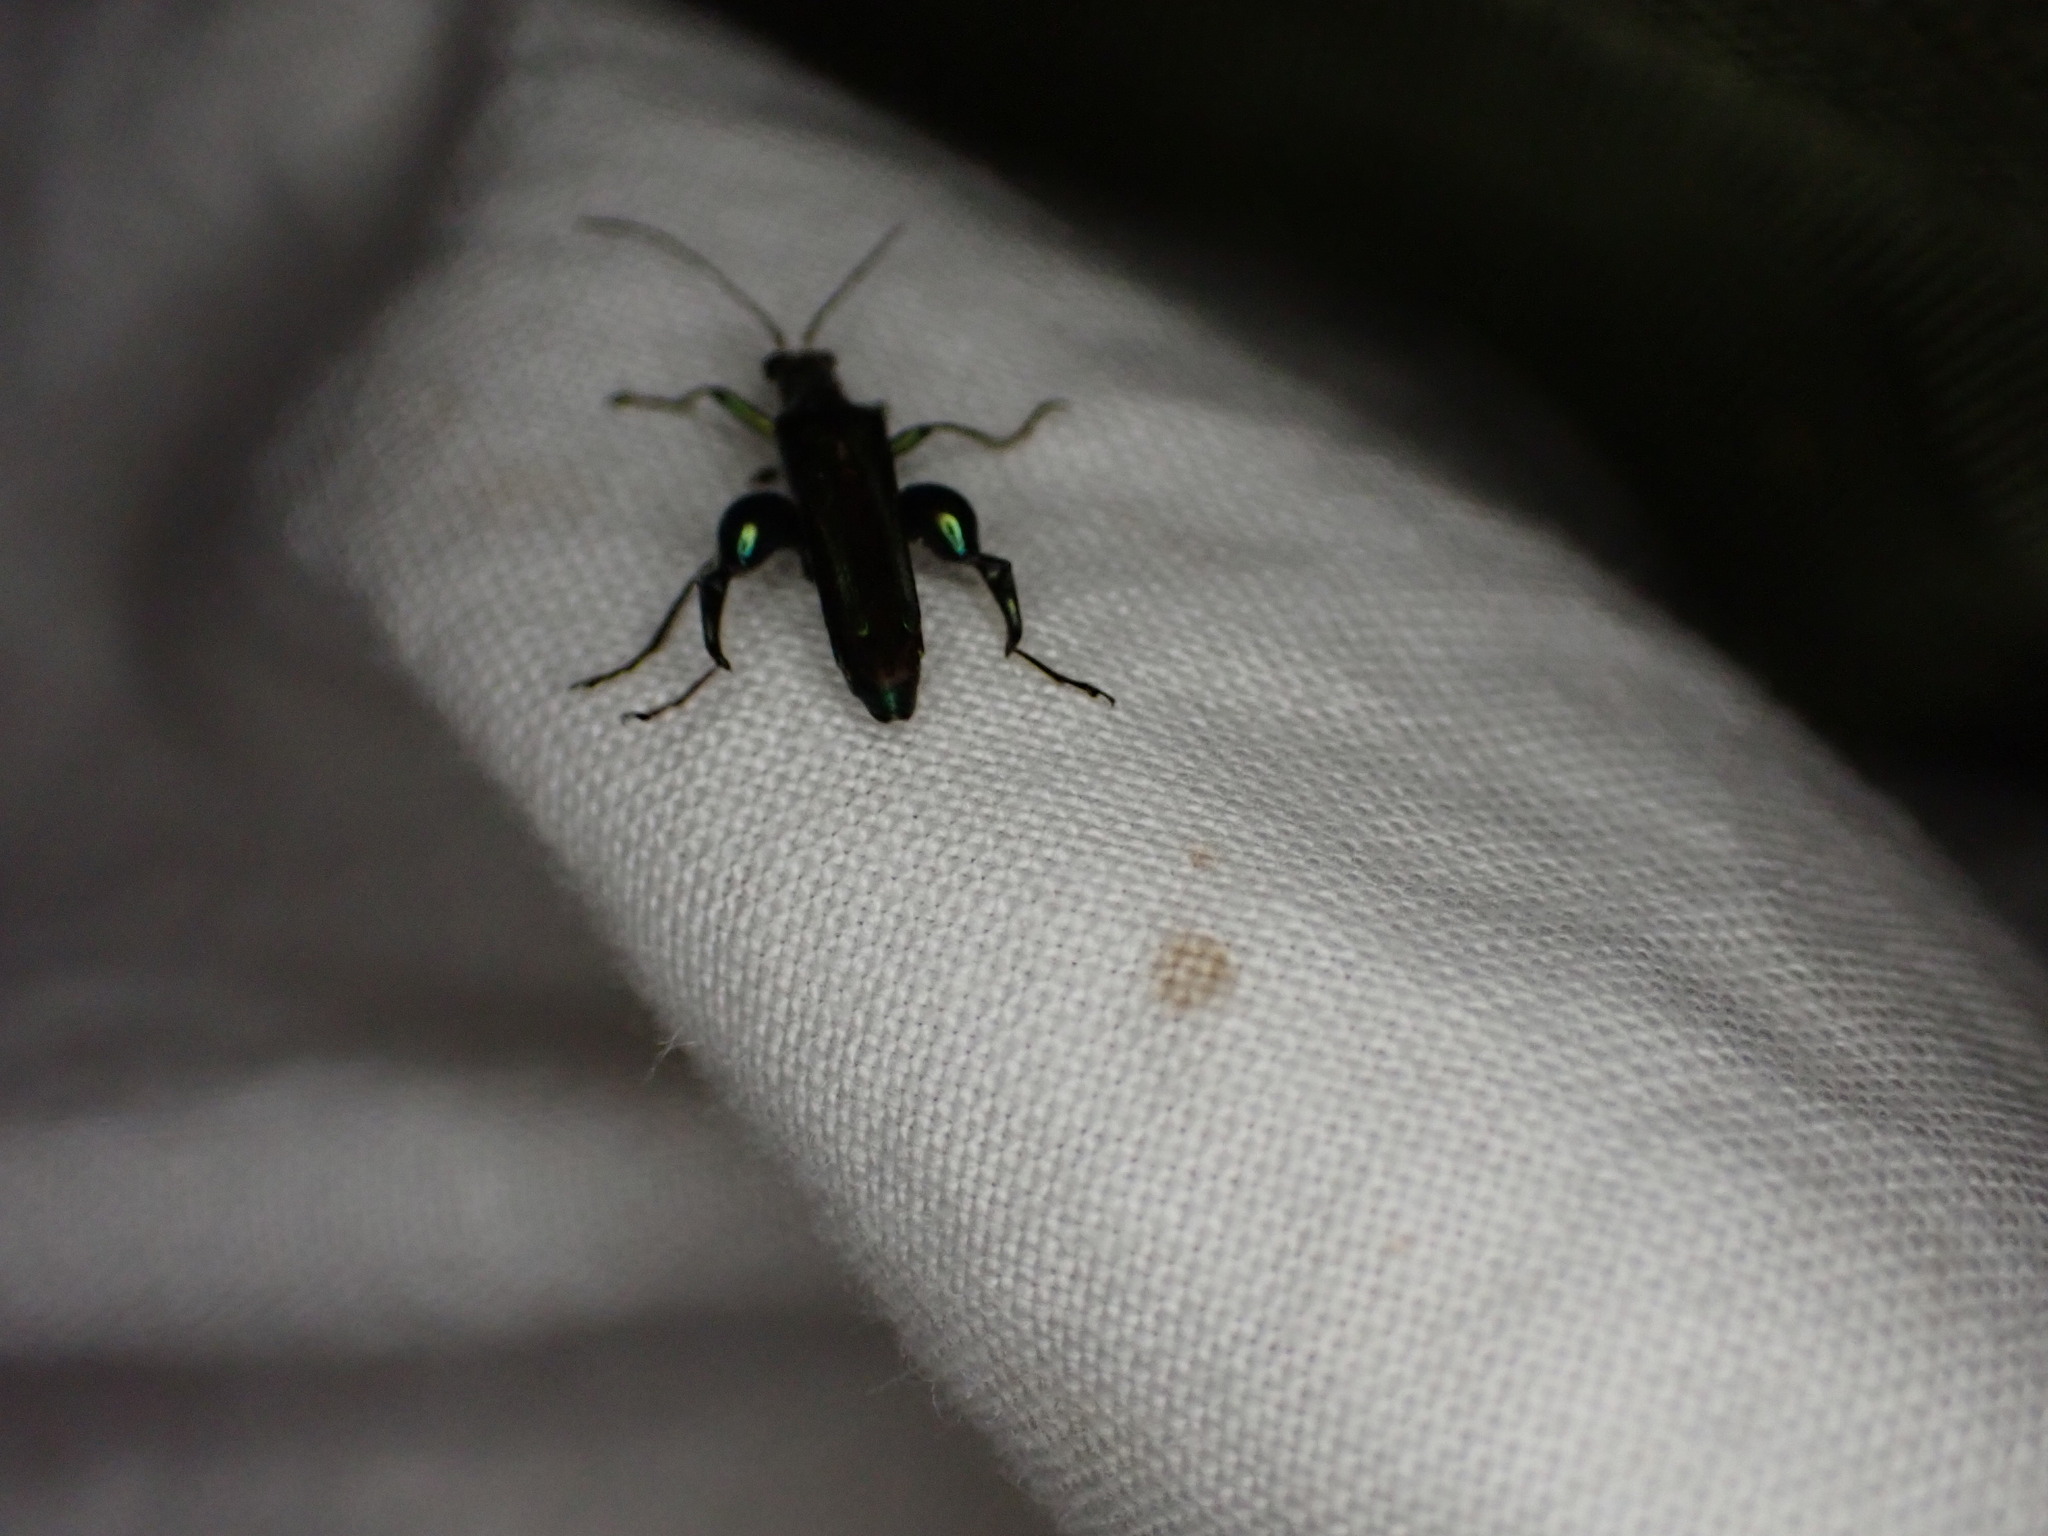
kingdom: Animalia
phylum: Arthropoda
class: Insecta
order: Coleoptera
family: Oedemeridae
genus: Oedemera
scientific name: Oedemera nobilis
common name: Swollen-thighed beetle
